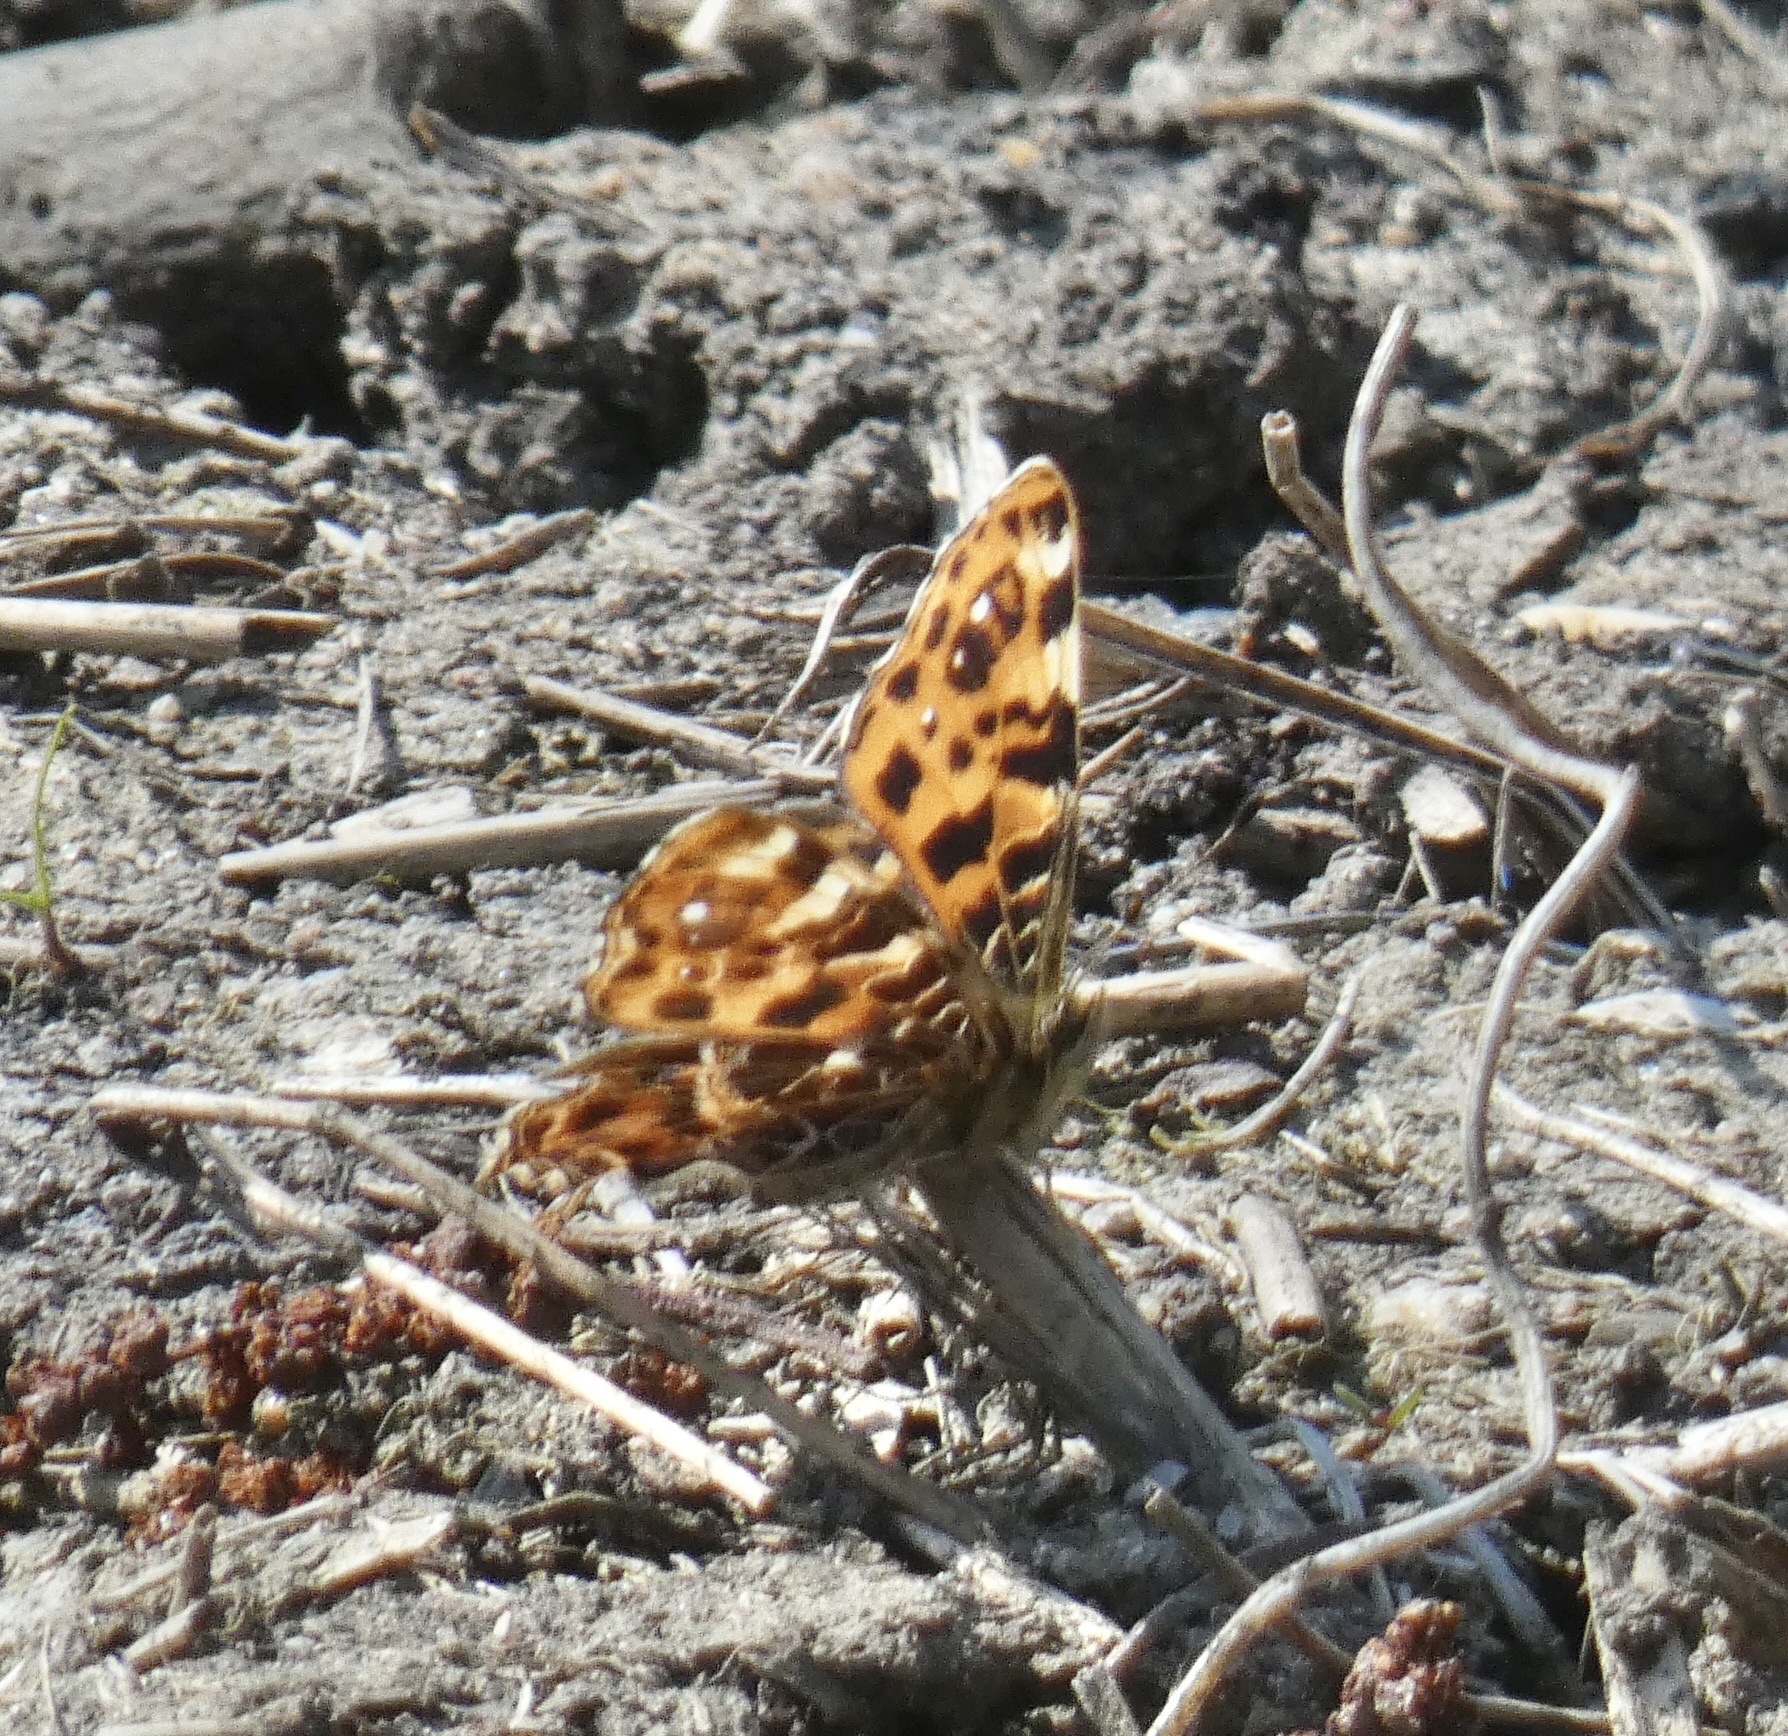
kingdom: Animalia
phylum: Arthropoda
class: Insecta
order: Lepidoptera
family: Nymphalidae
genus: Araschnia
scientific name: Araschnia levana
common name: Map butterfly
